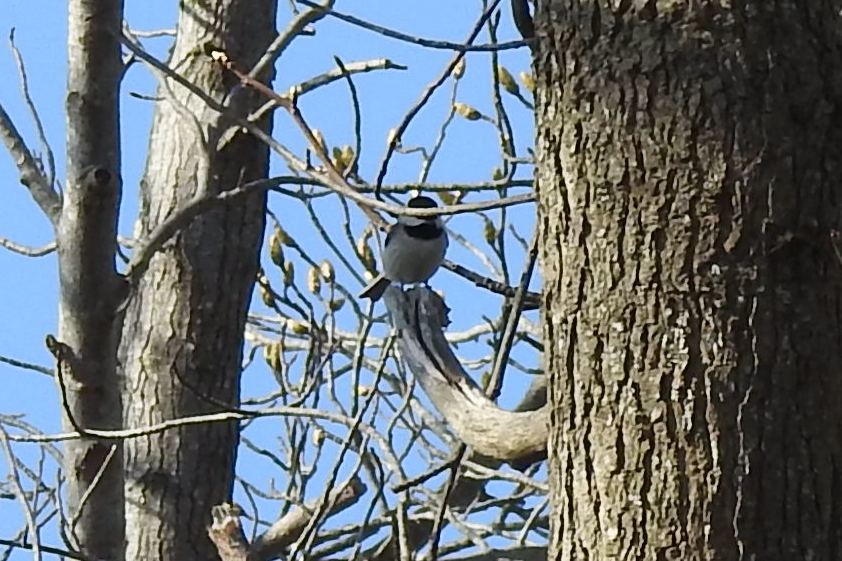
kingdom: Animalia
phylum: Chordata
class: Aves
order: Passeriformes
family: Paridae
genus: Poecile
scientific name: Poecile carolinensis
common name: Carolina chickadee
